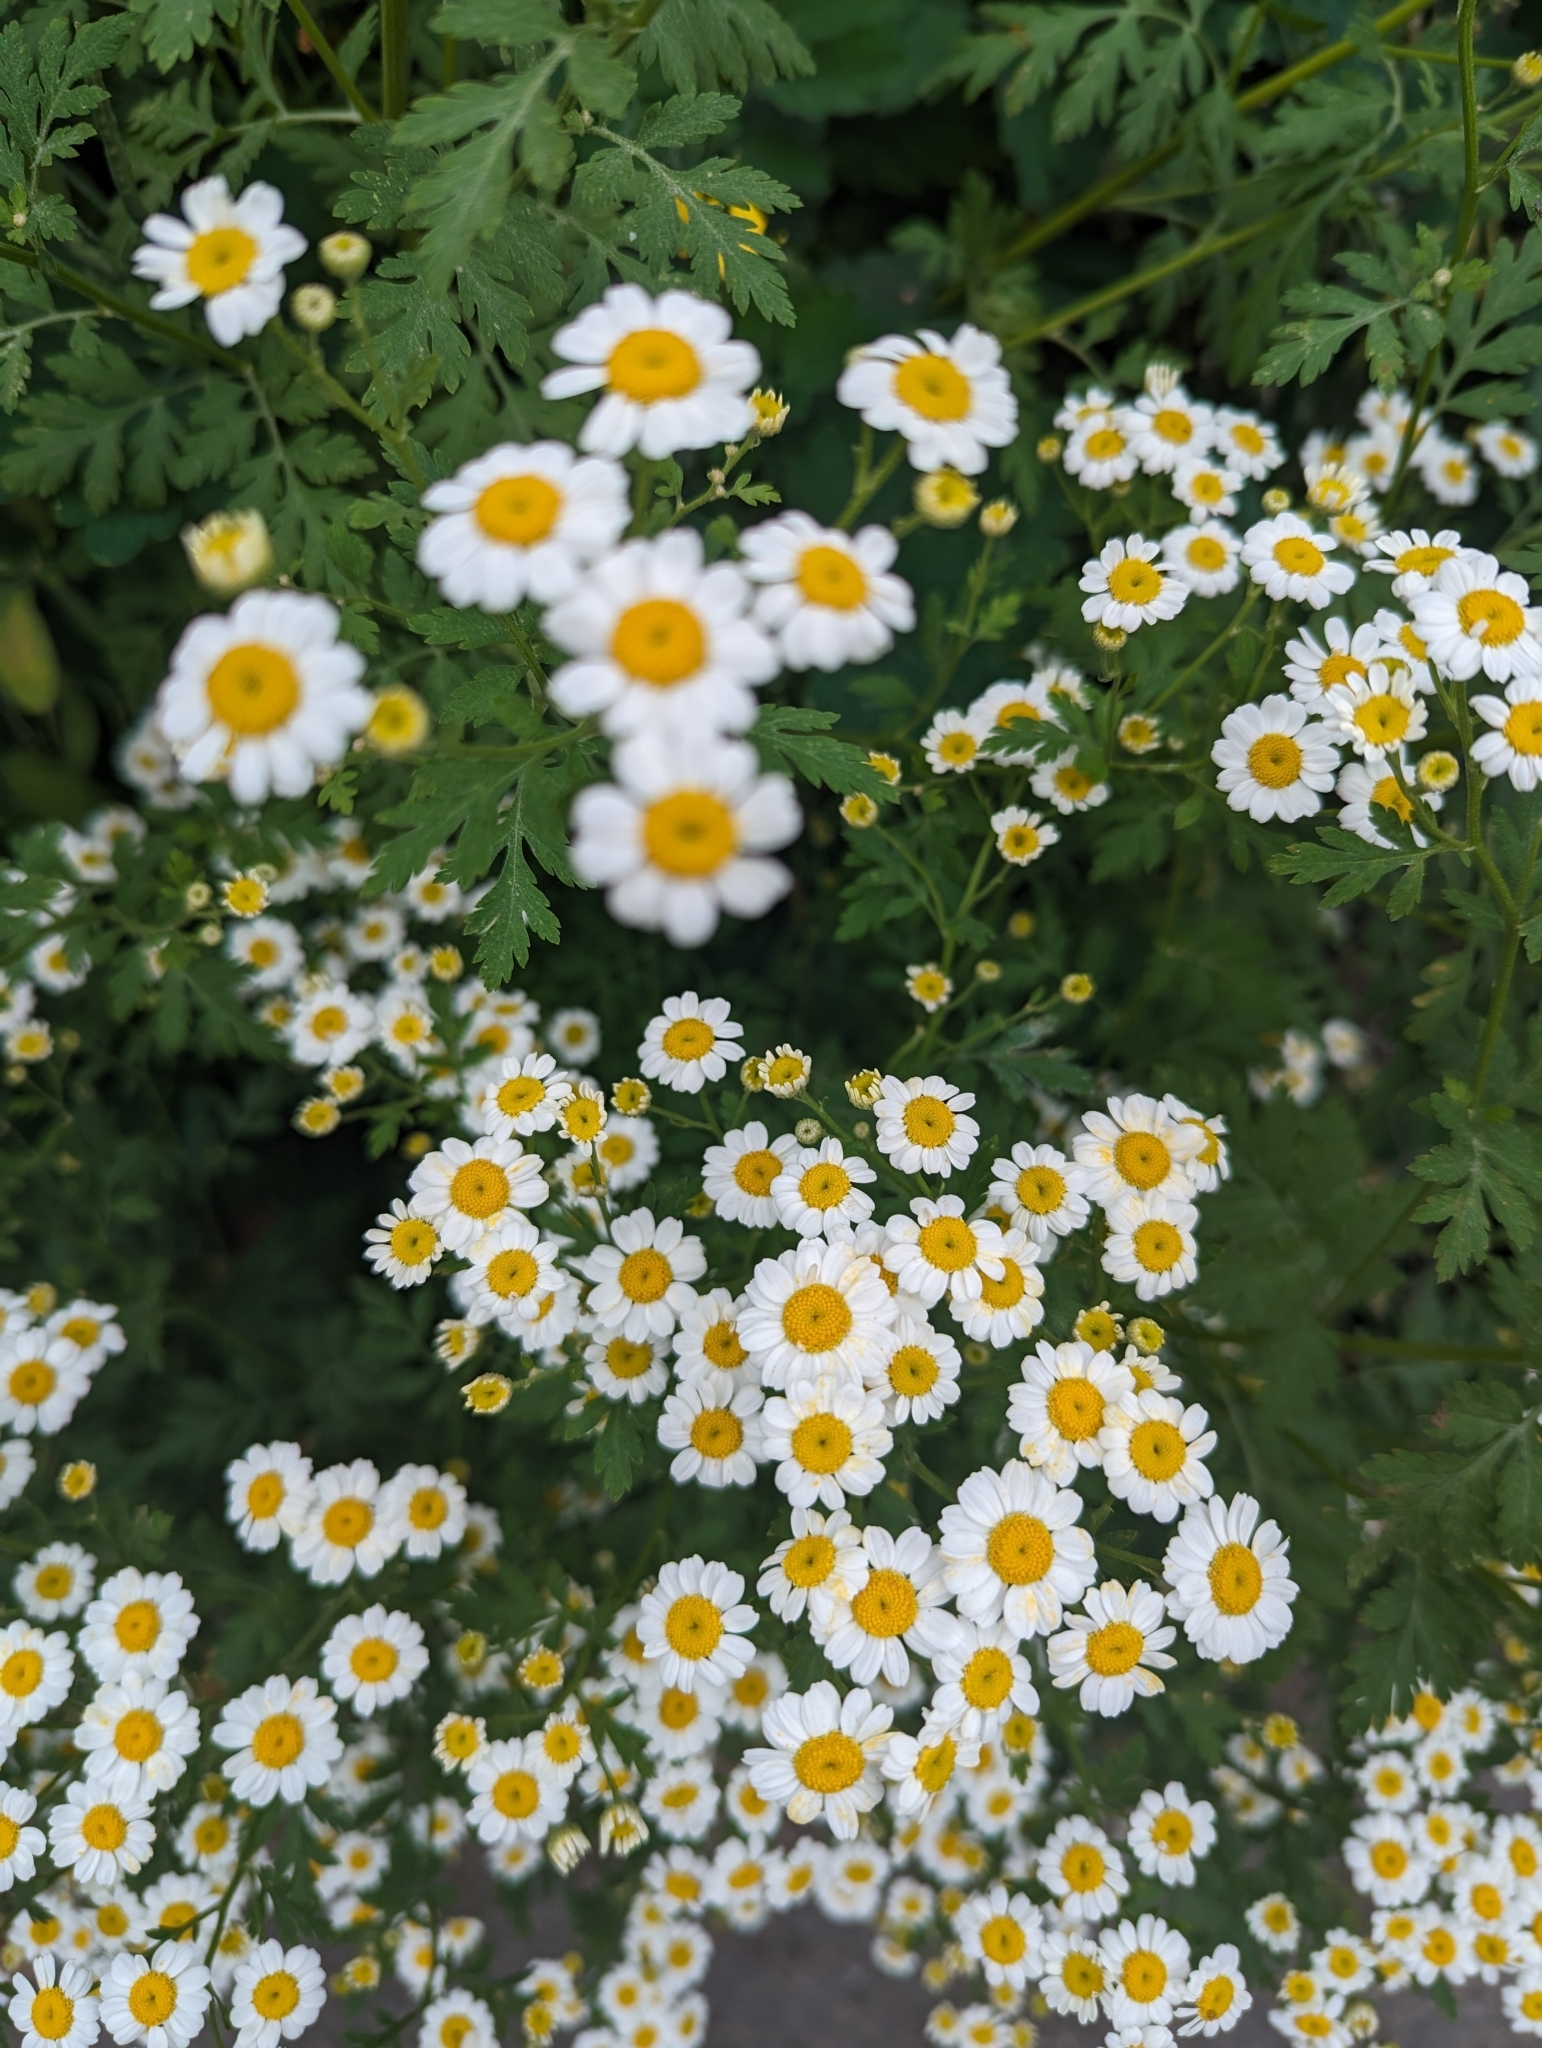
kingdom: Plantae
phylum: Tracheophyta
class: Magnoliopsida
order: Asterales
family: Asteraceae
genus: Tanacetum
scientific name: Tanacetum parthenium
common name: Feverfew
